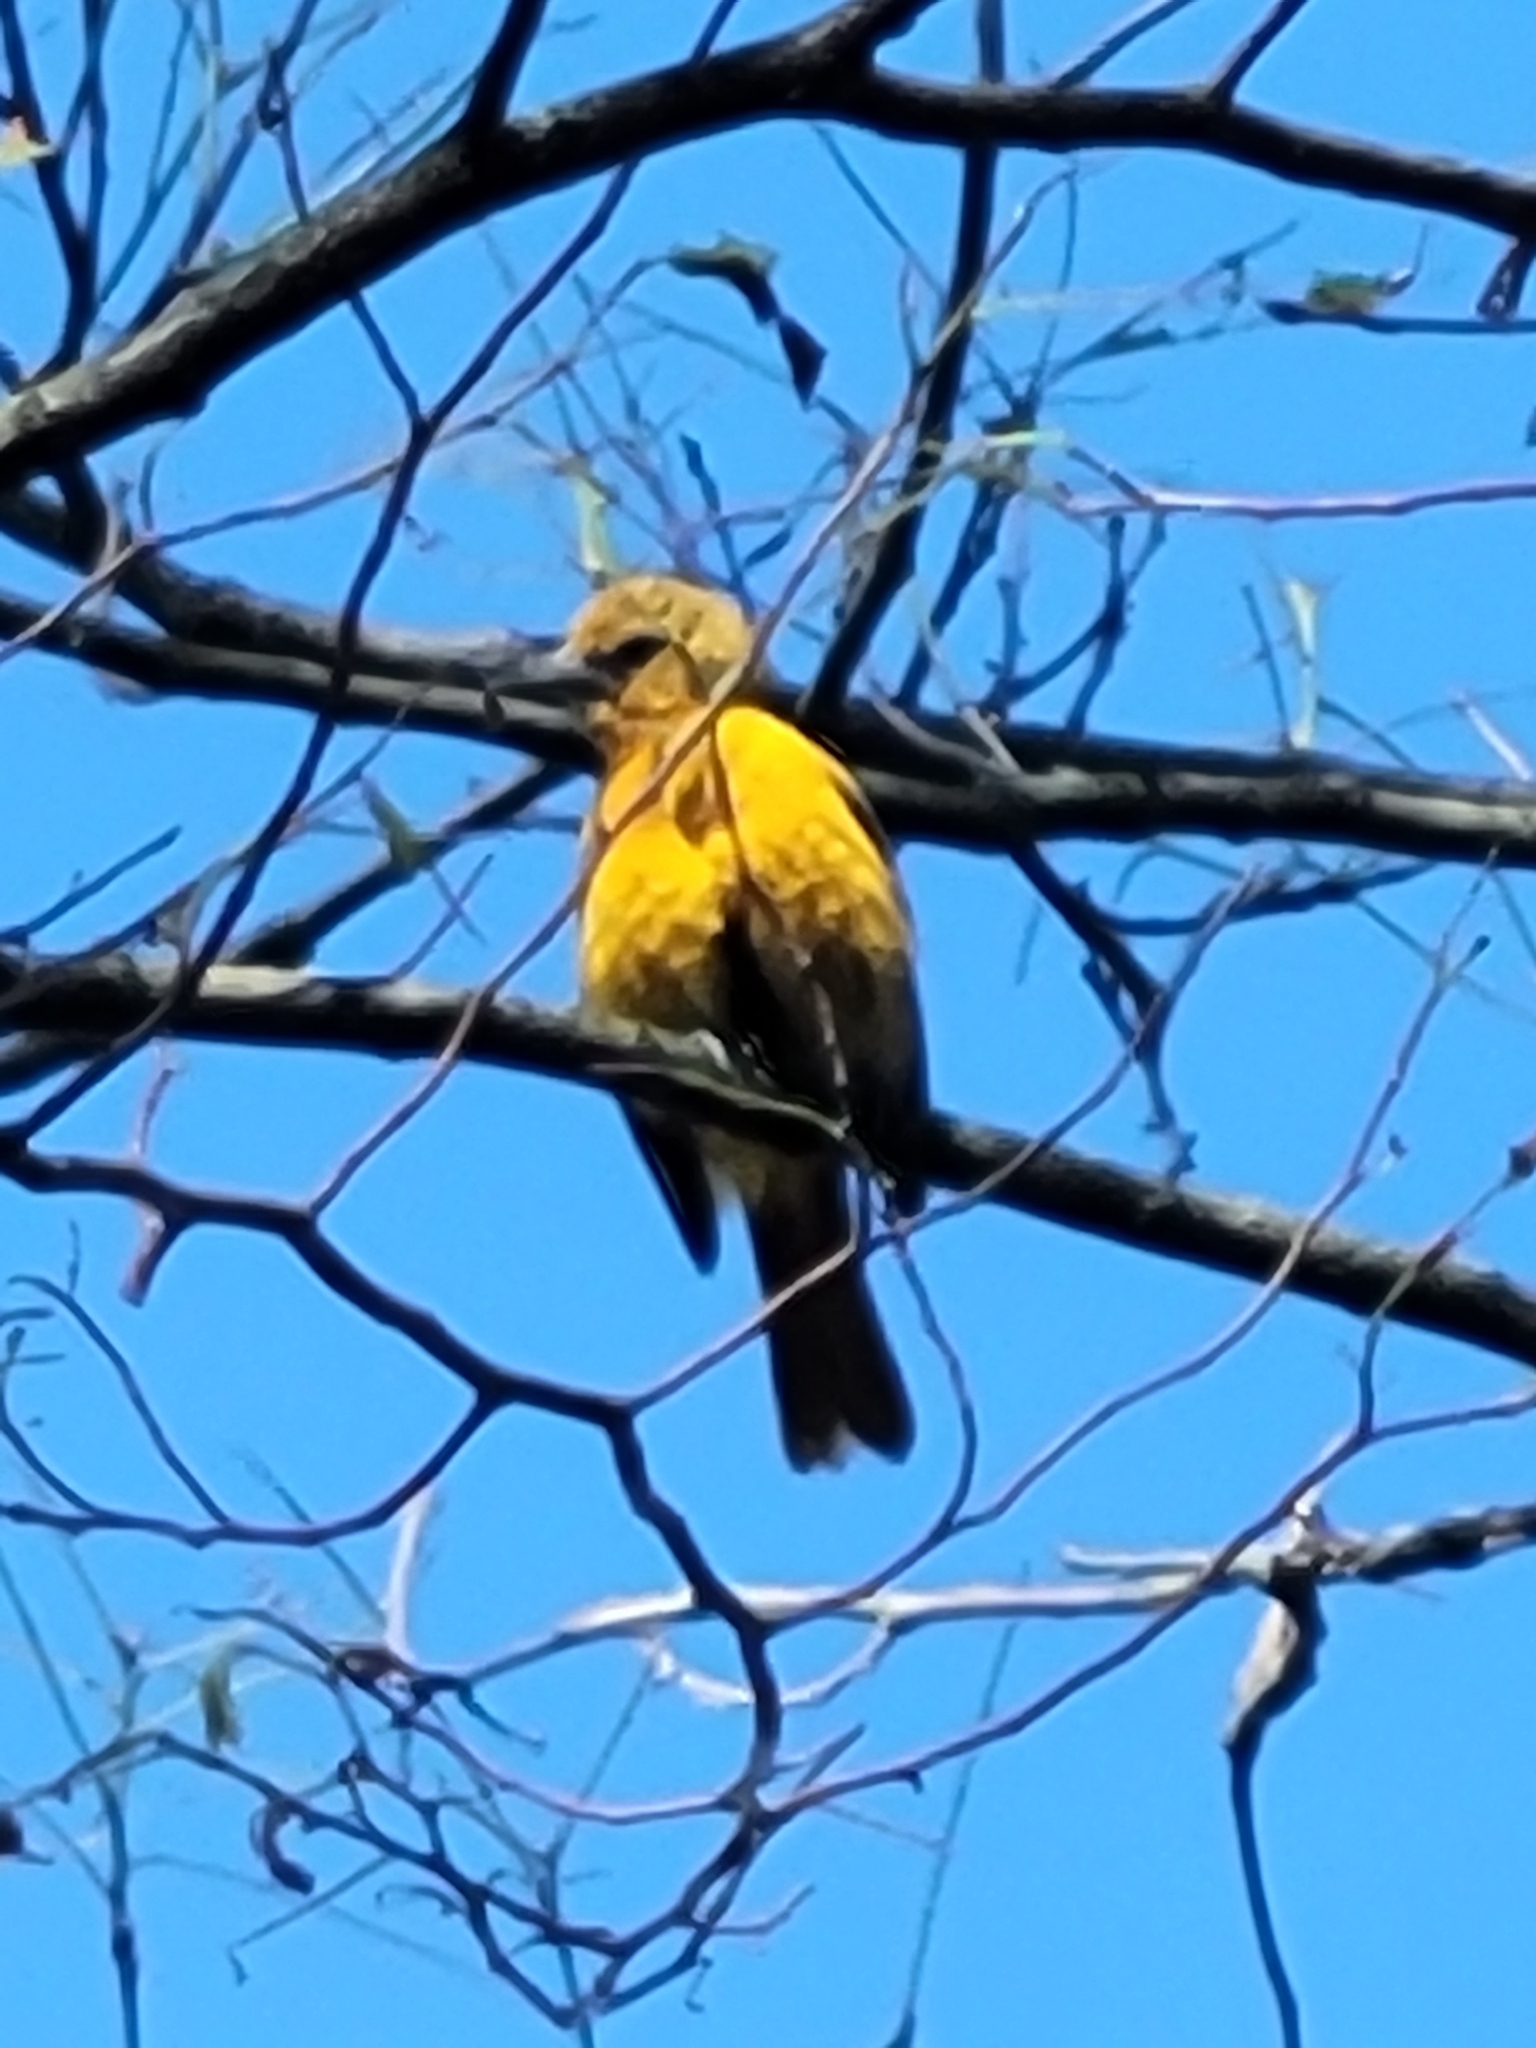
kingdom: Animalia
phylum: Chordata
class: Aves
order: Passeriformes
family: Icteridae
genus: Icterus
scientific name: Icterus galbula
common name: Baltimore oriole
